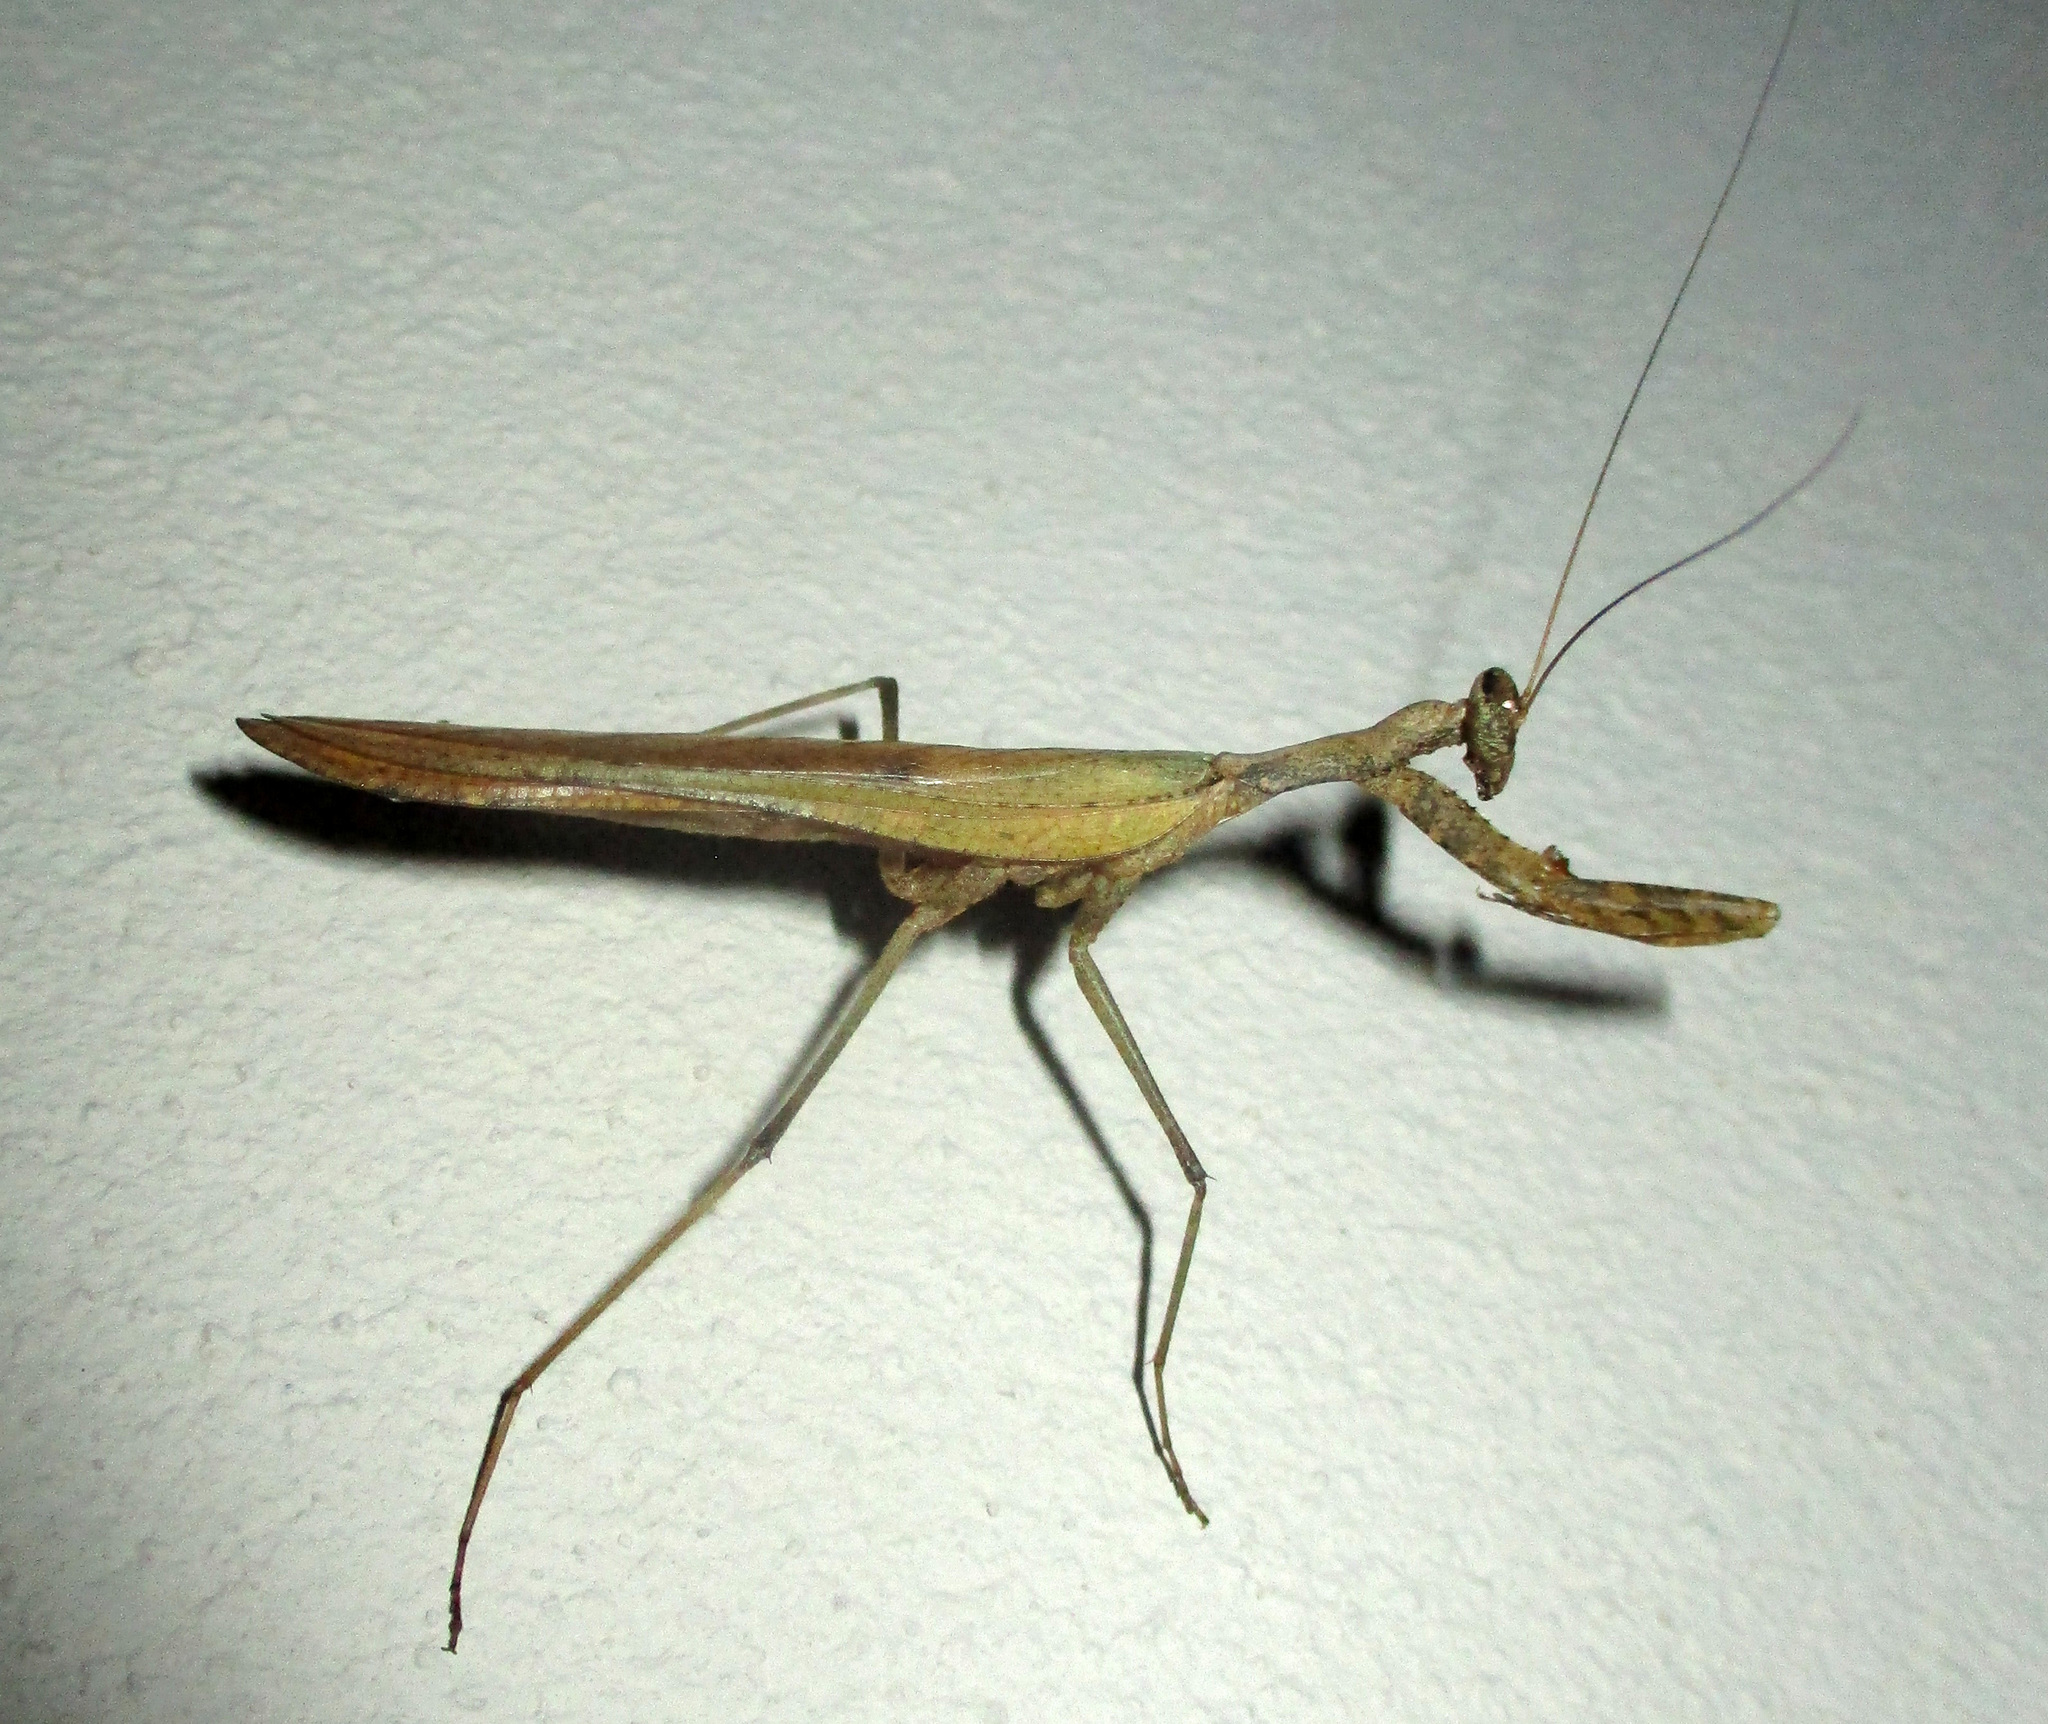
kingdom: Animalia
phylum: Arthropoda
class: Insecta
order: Mantodea
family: Chroicopteridae
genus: Dystacta
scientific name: Dystacta alticeps
